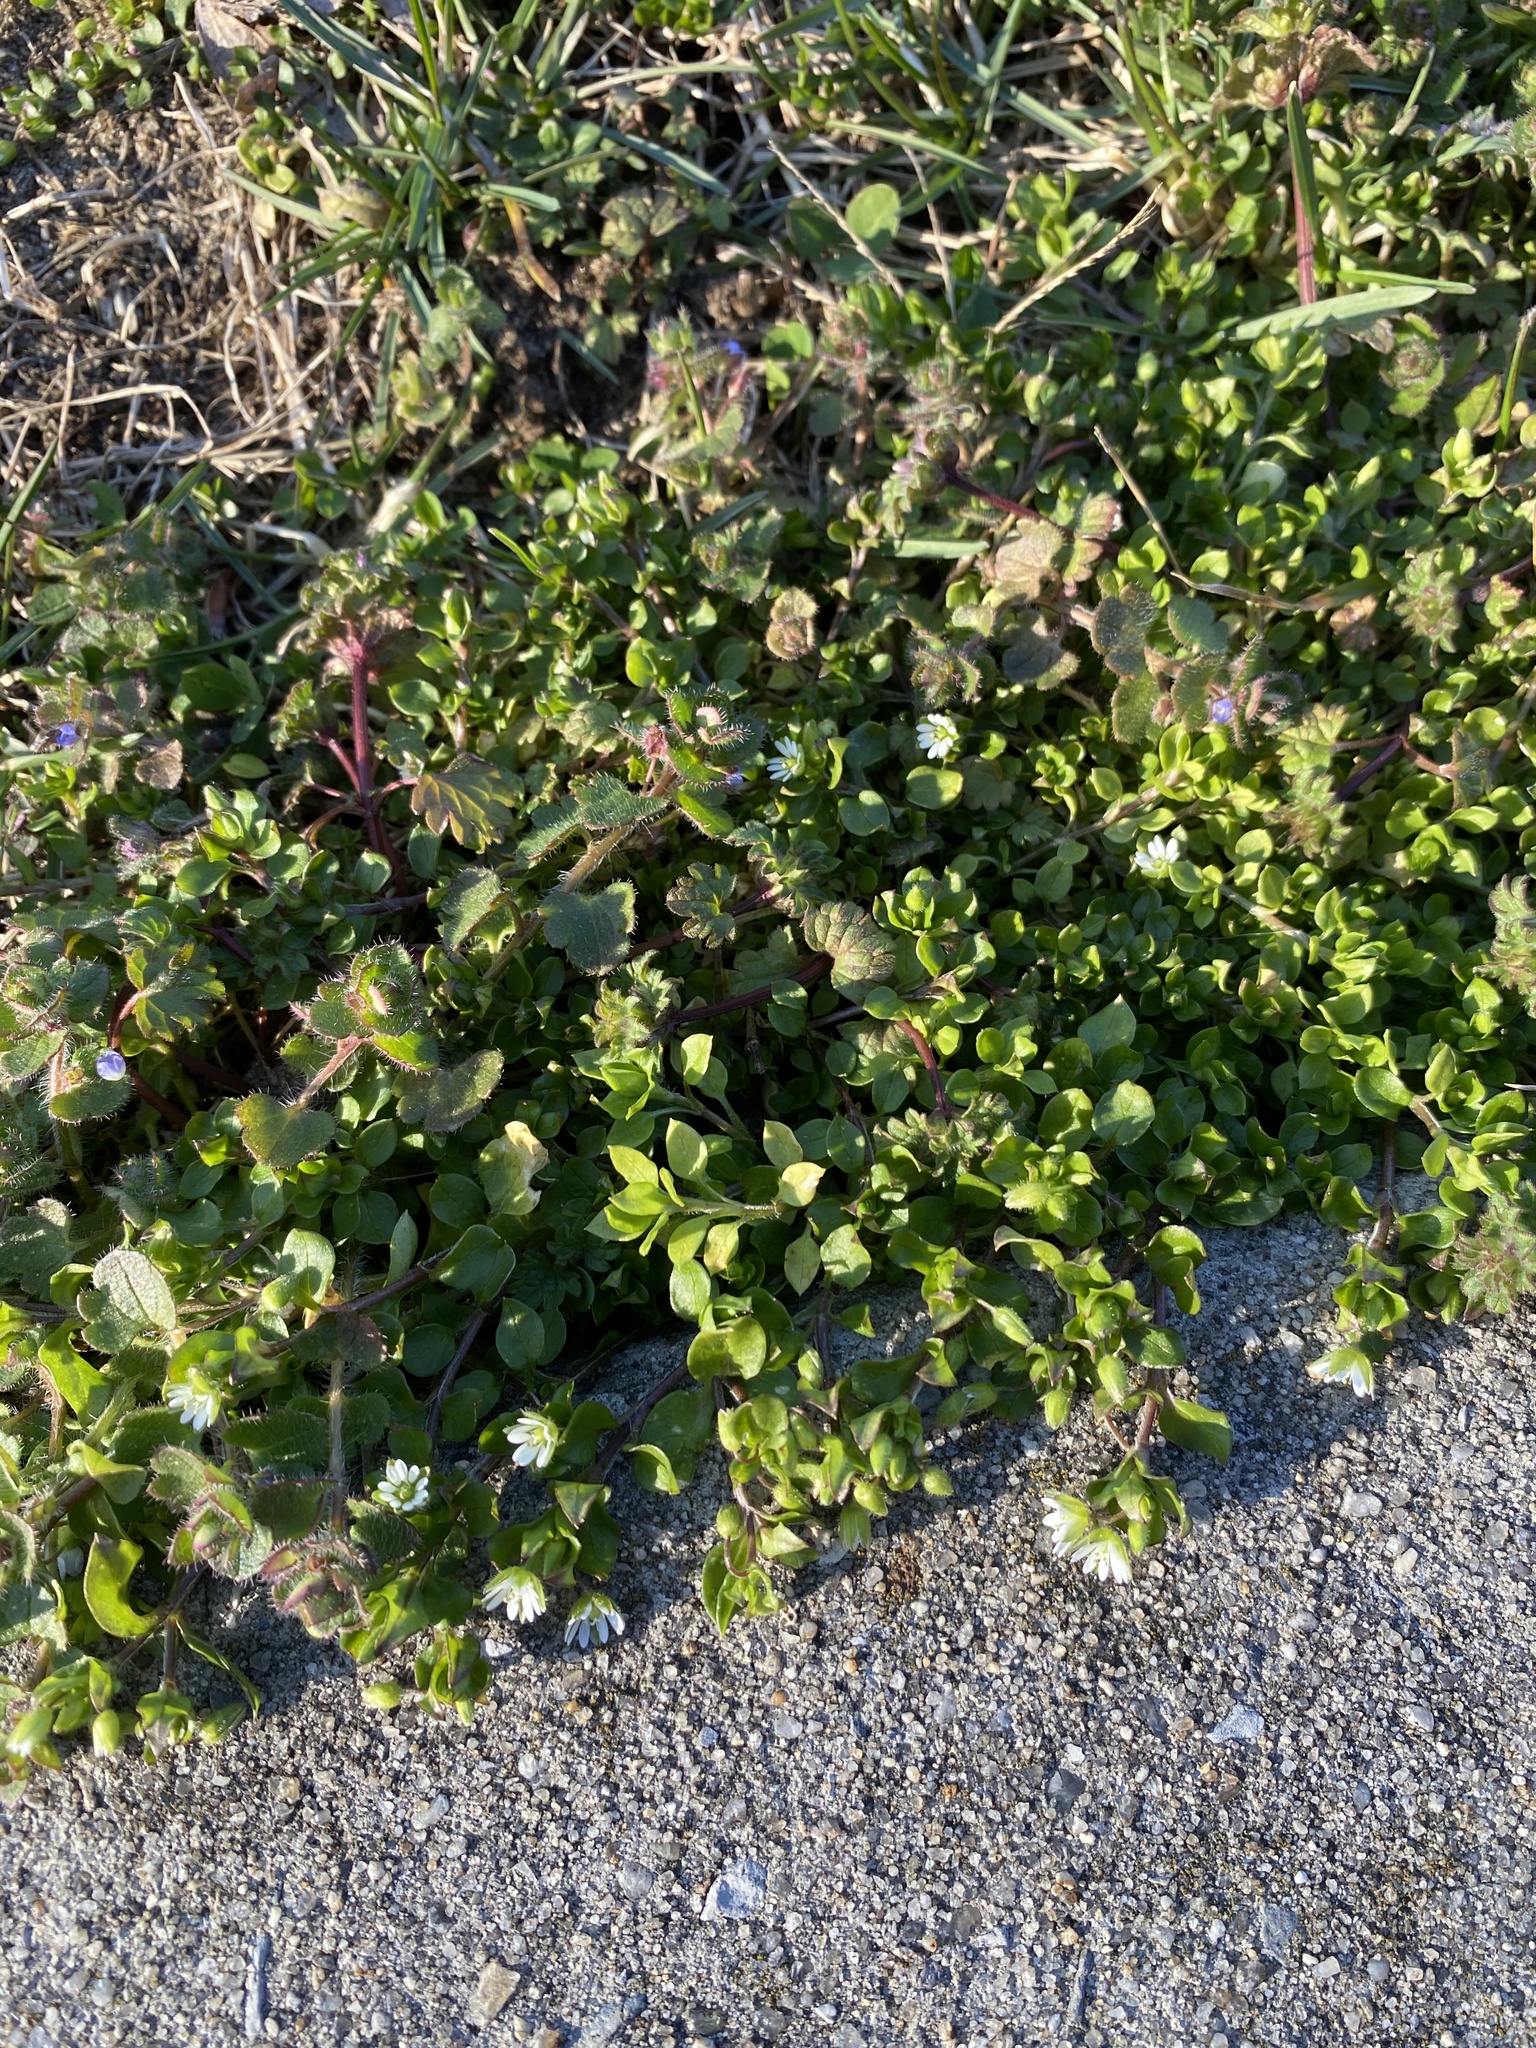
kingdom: Plantae
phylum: Tracheophyta
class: Magnoliopsida
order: Caryophyllales
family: Caryophyllaceae
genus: Stellaria
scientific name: Stellaria media
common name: Common chickweed
